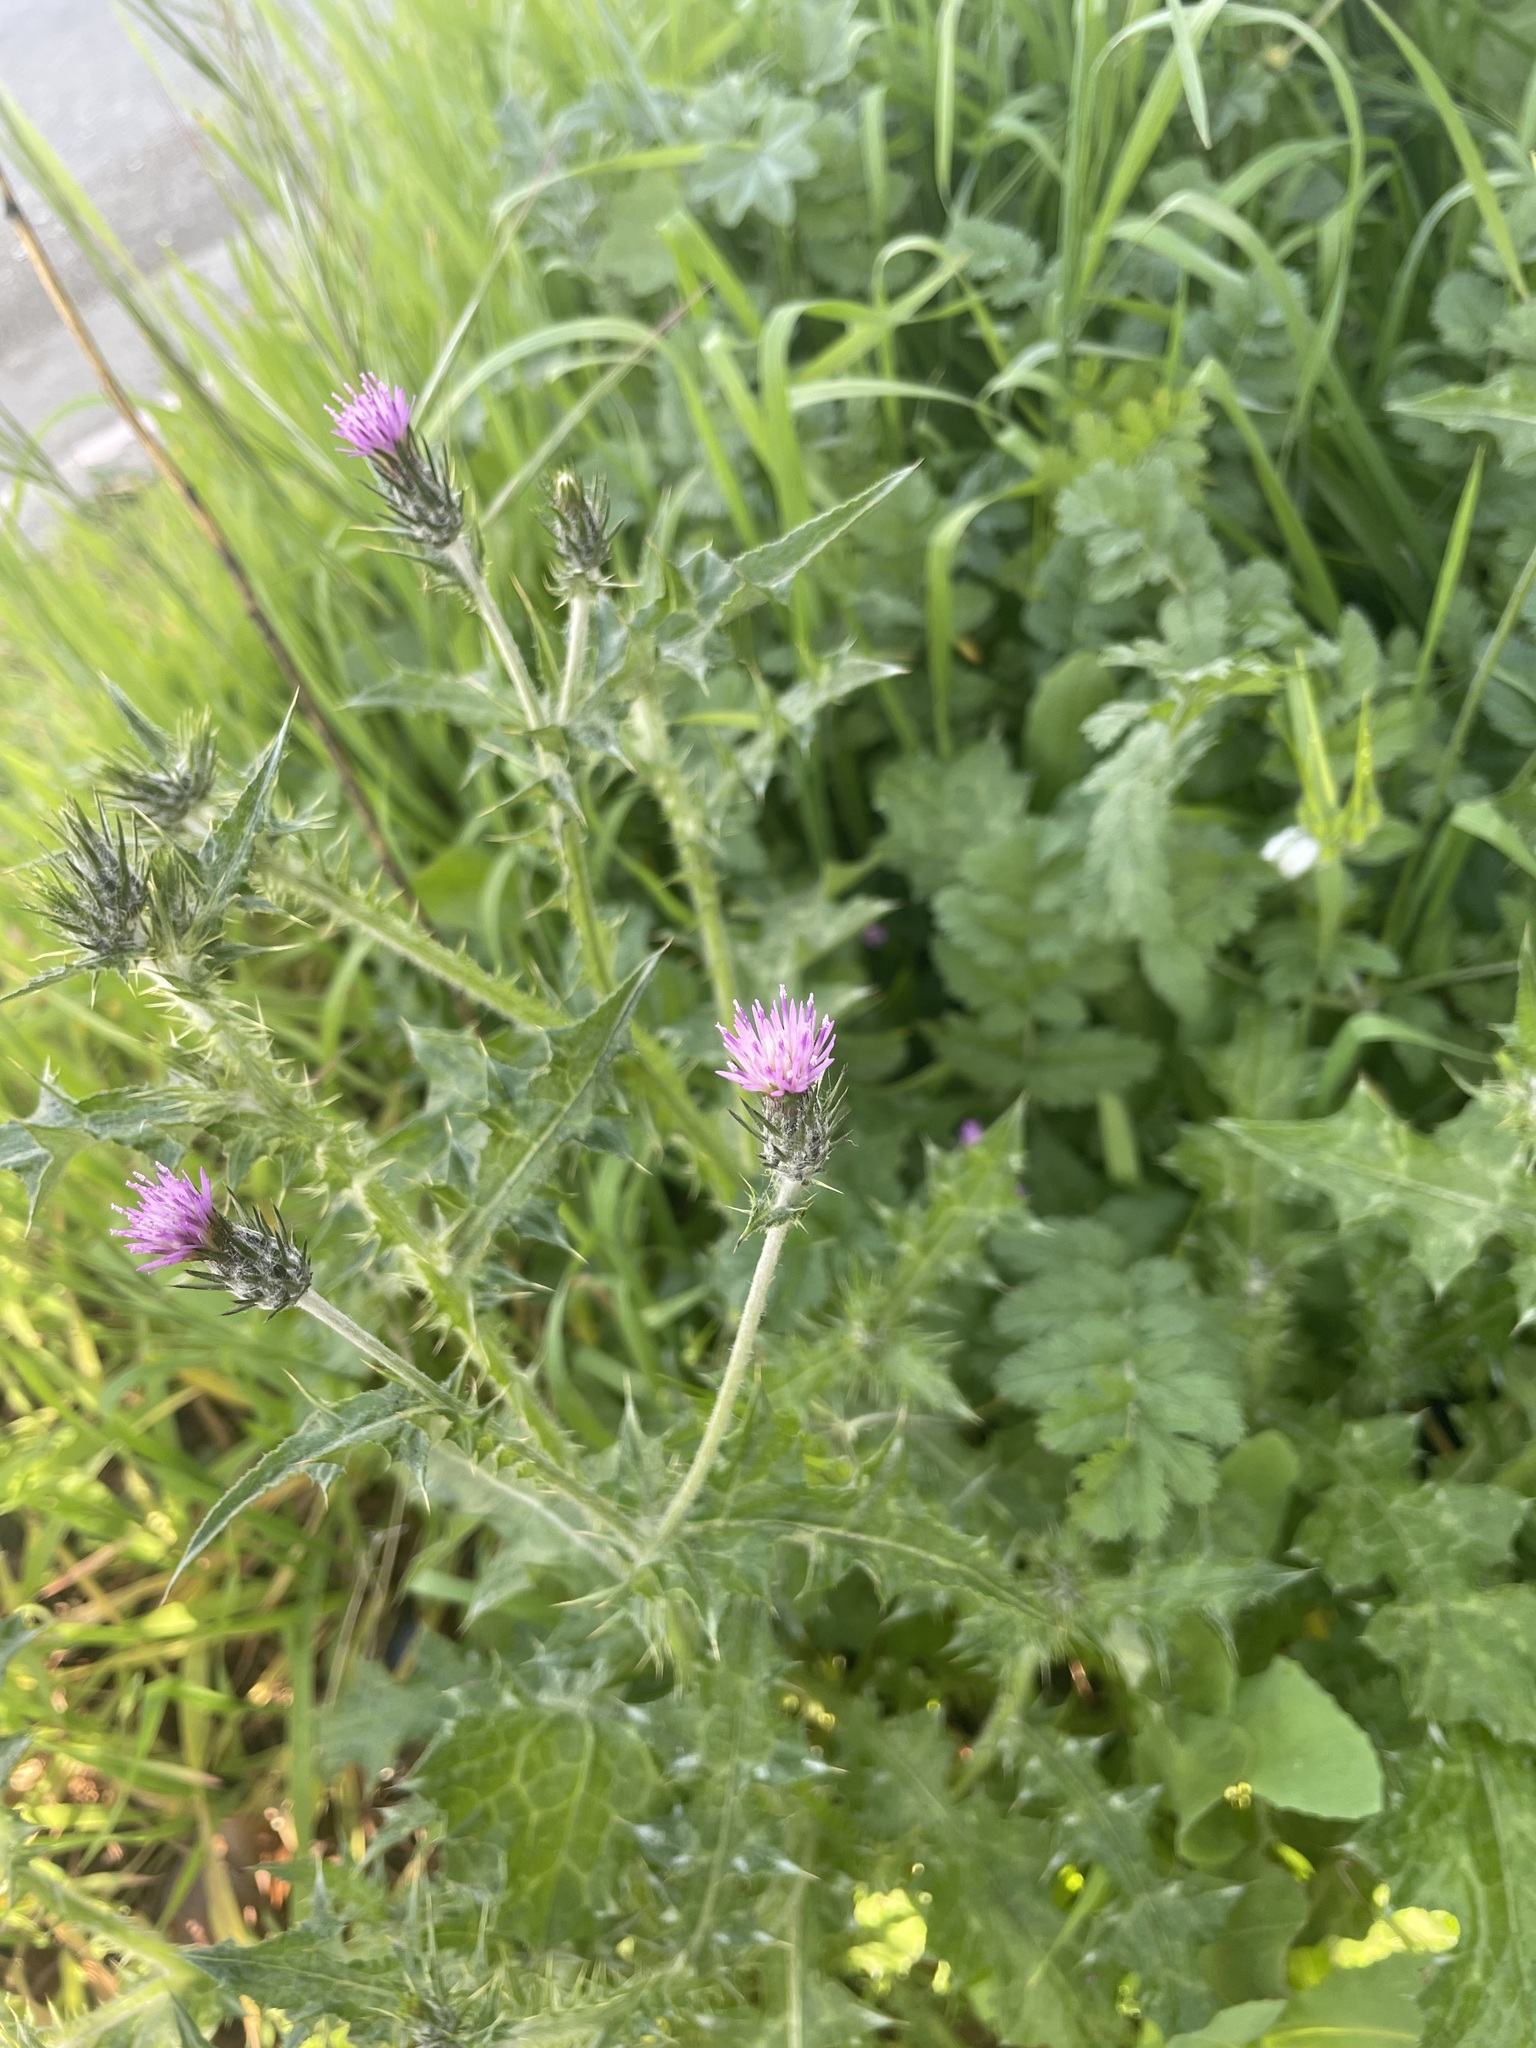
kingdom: Plantae
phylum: Tracheophyta
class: Magnoliopsida
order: Asterales
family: Asteraceae
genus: Carduus
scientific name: Carduus pycnocephalus
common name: Plymouth thistle
